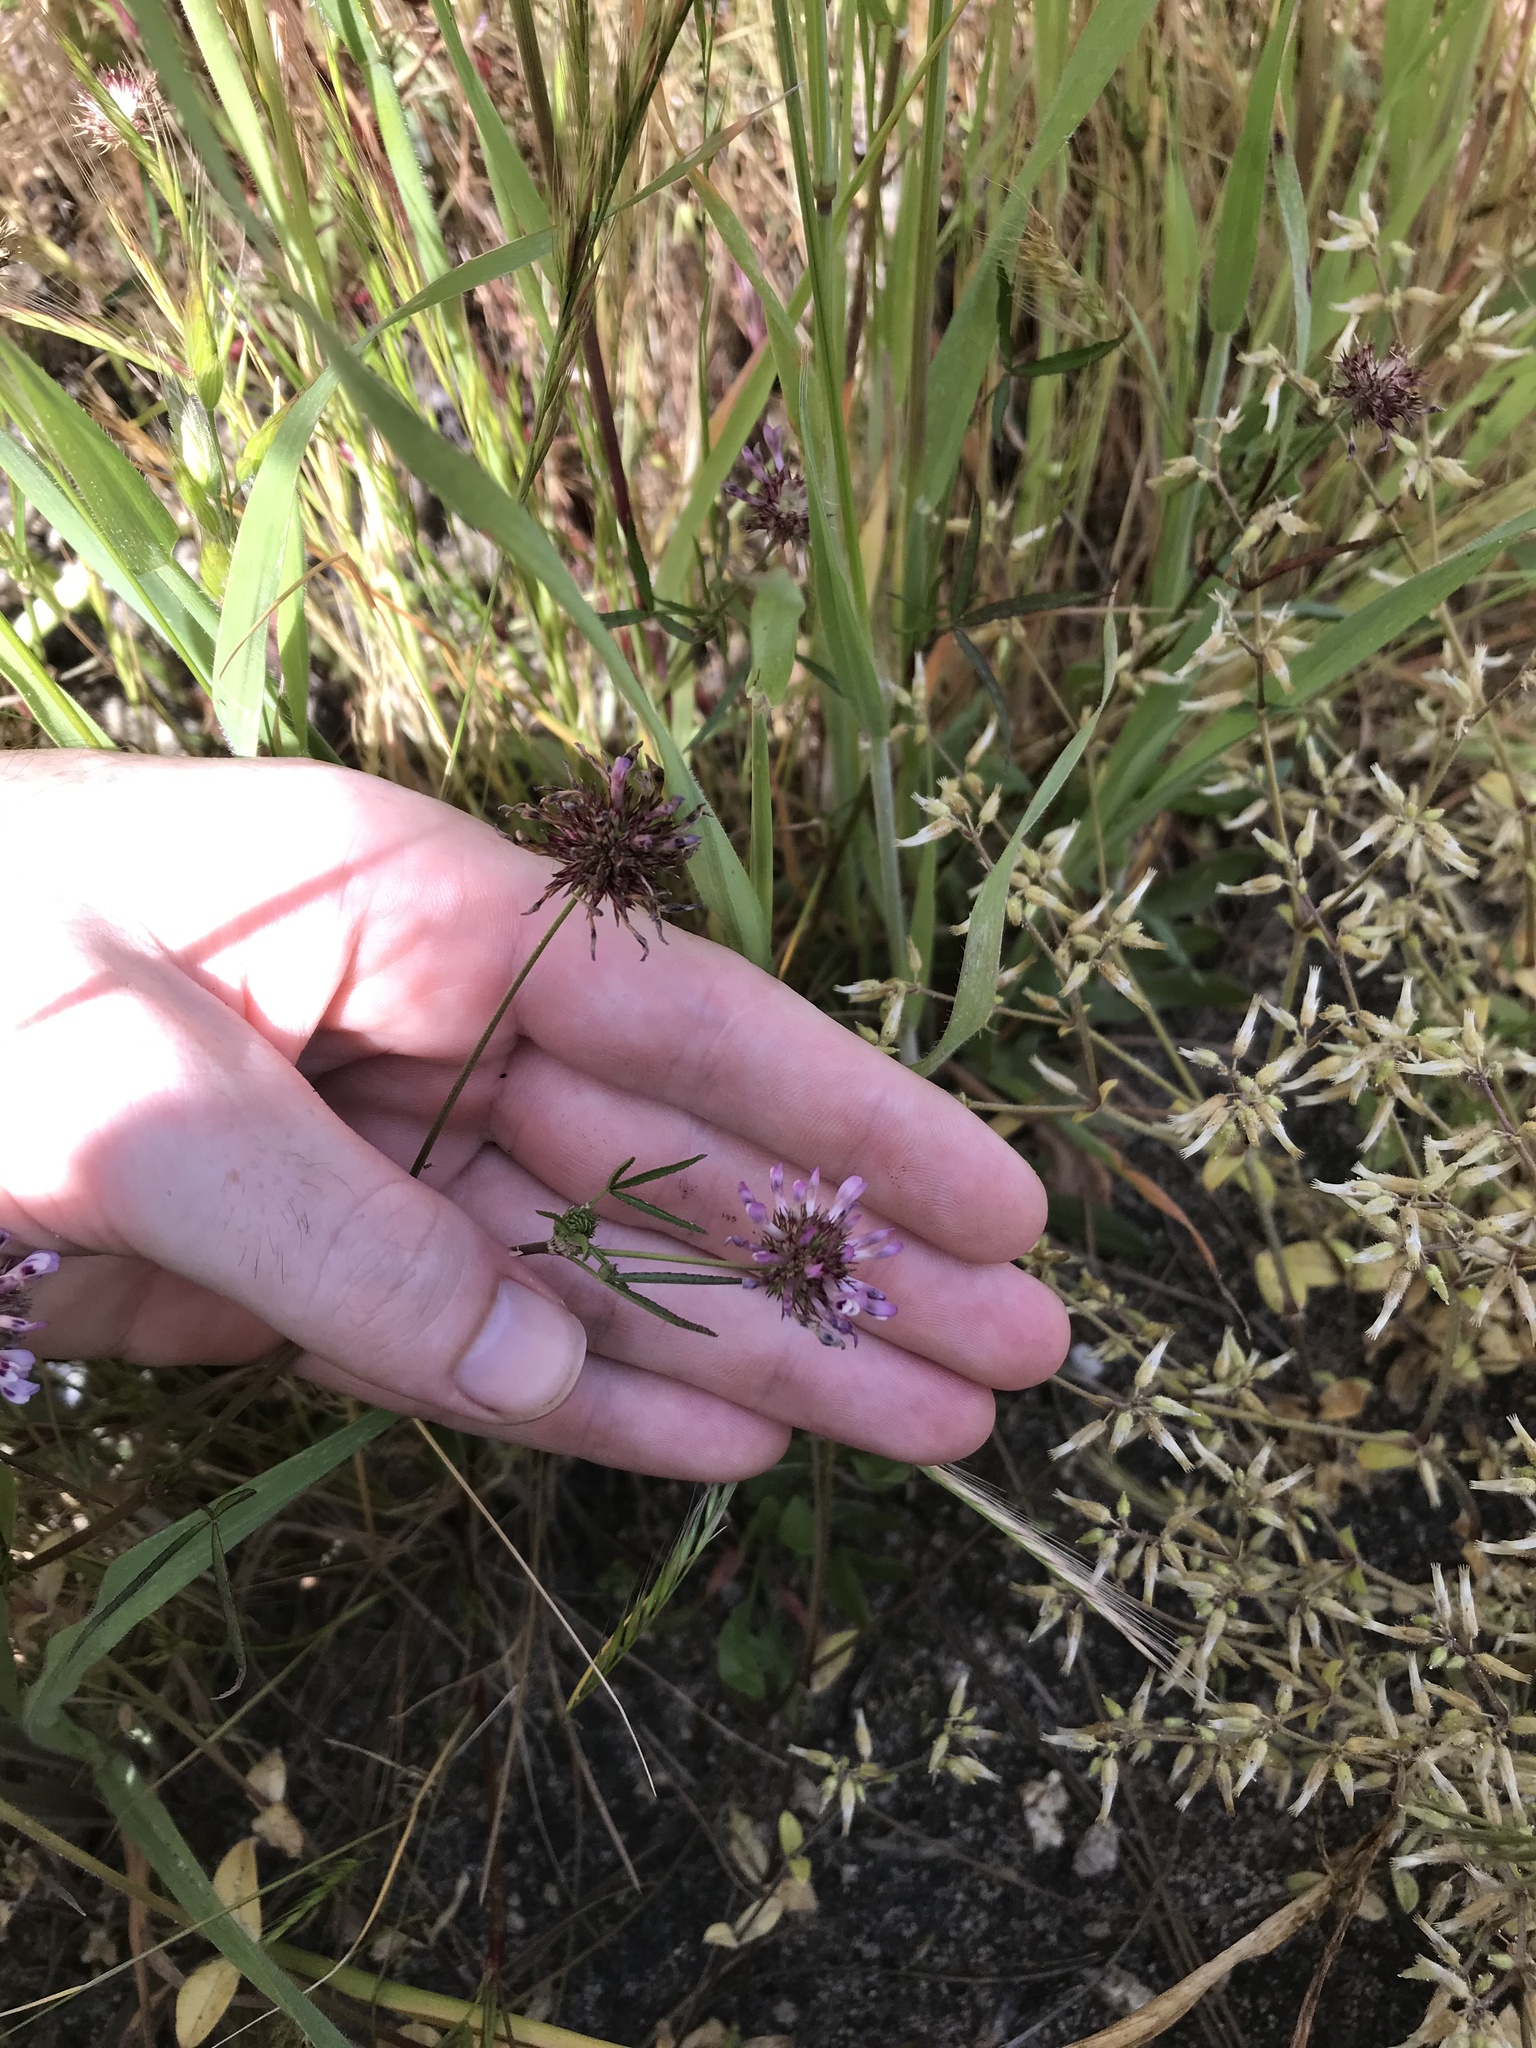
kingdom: Plantae
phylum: Tracheophyta
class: Magnoliopsida
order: Fabales
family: Fabaceae
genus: Trifolium
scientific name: Trifolium willdenovii
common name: Tomcat clover
